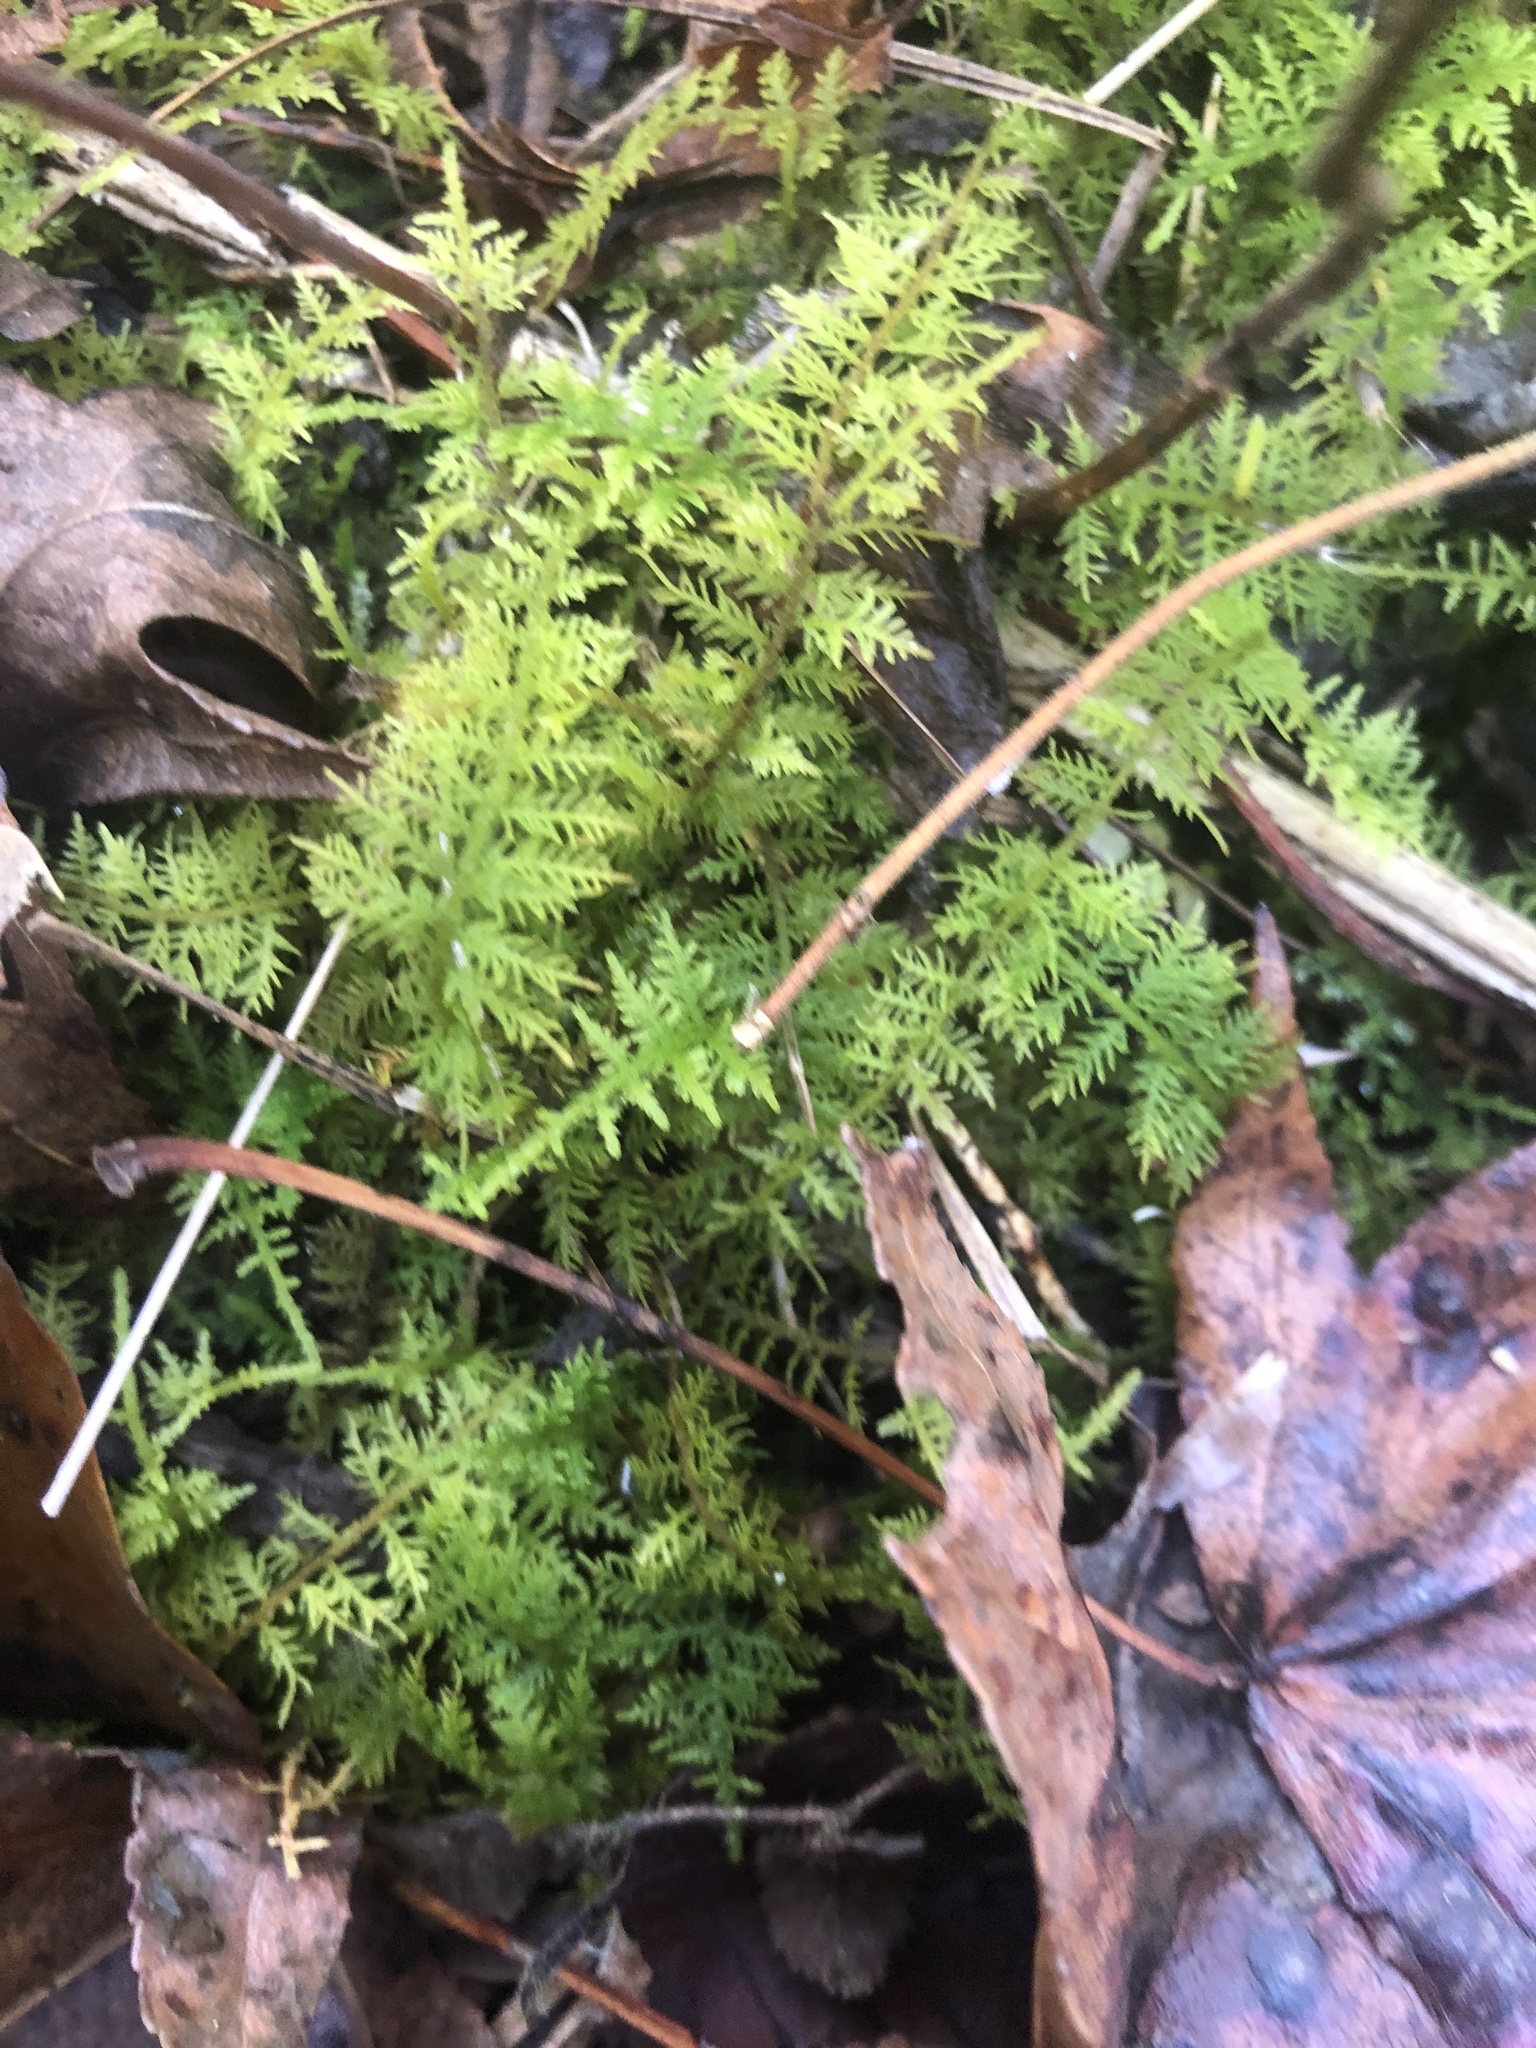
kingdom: Plantae
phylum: Bryophyta
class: Bryopsida
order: Hypnales
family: Thuidiaceae
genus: Thuidium
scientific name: Thuidium delicatulum
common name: Delicate fern moss
